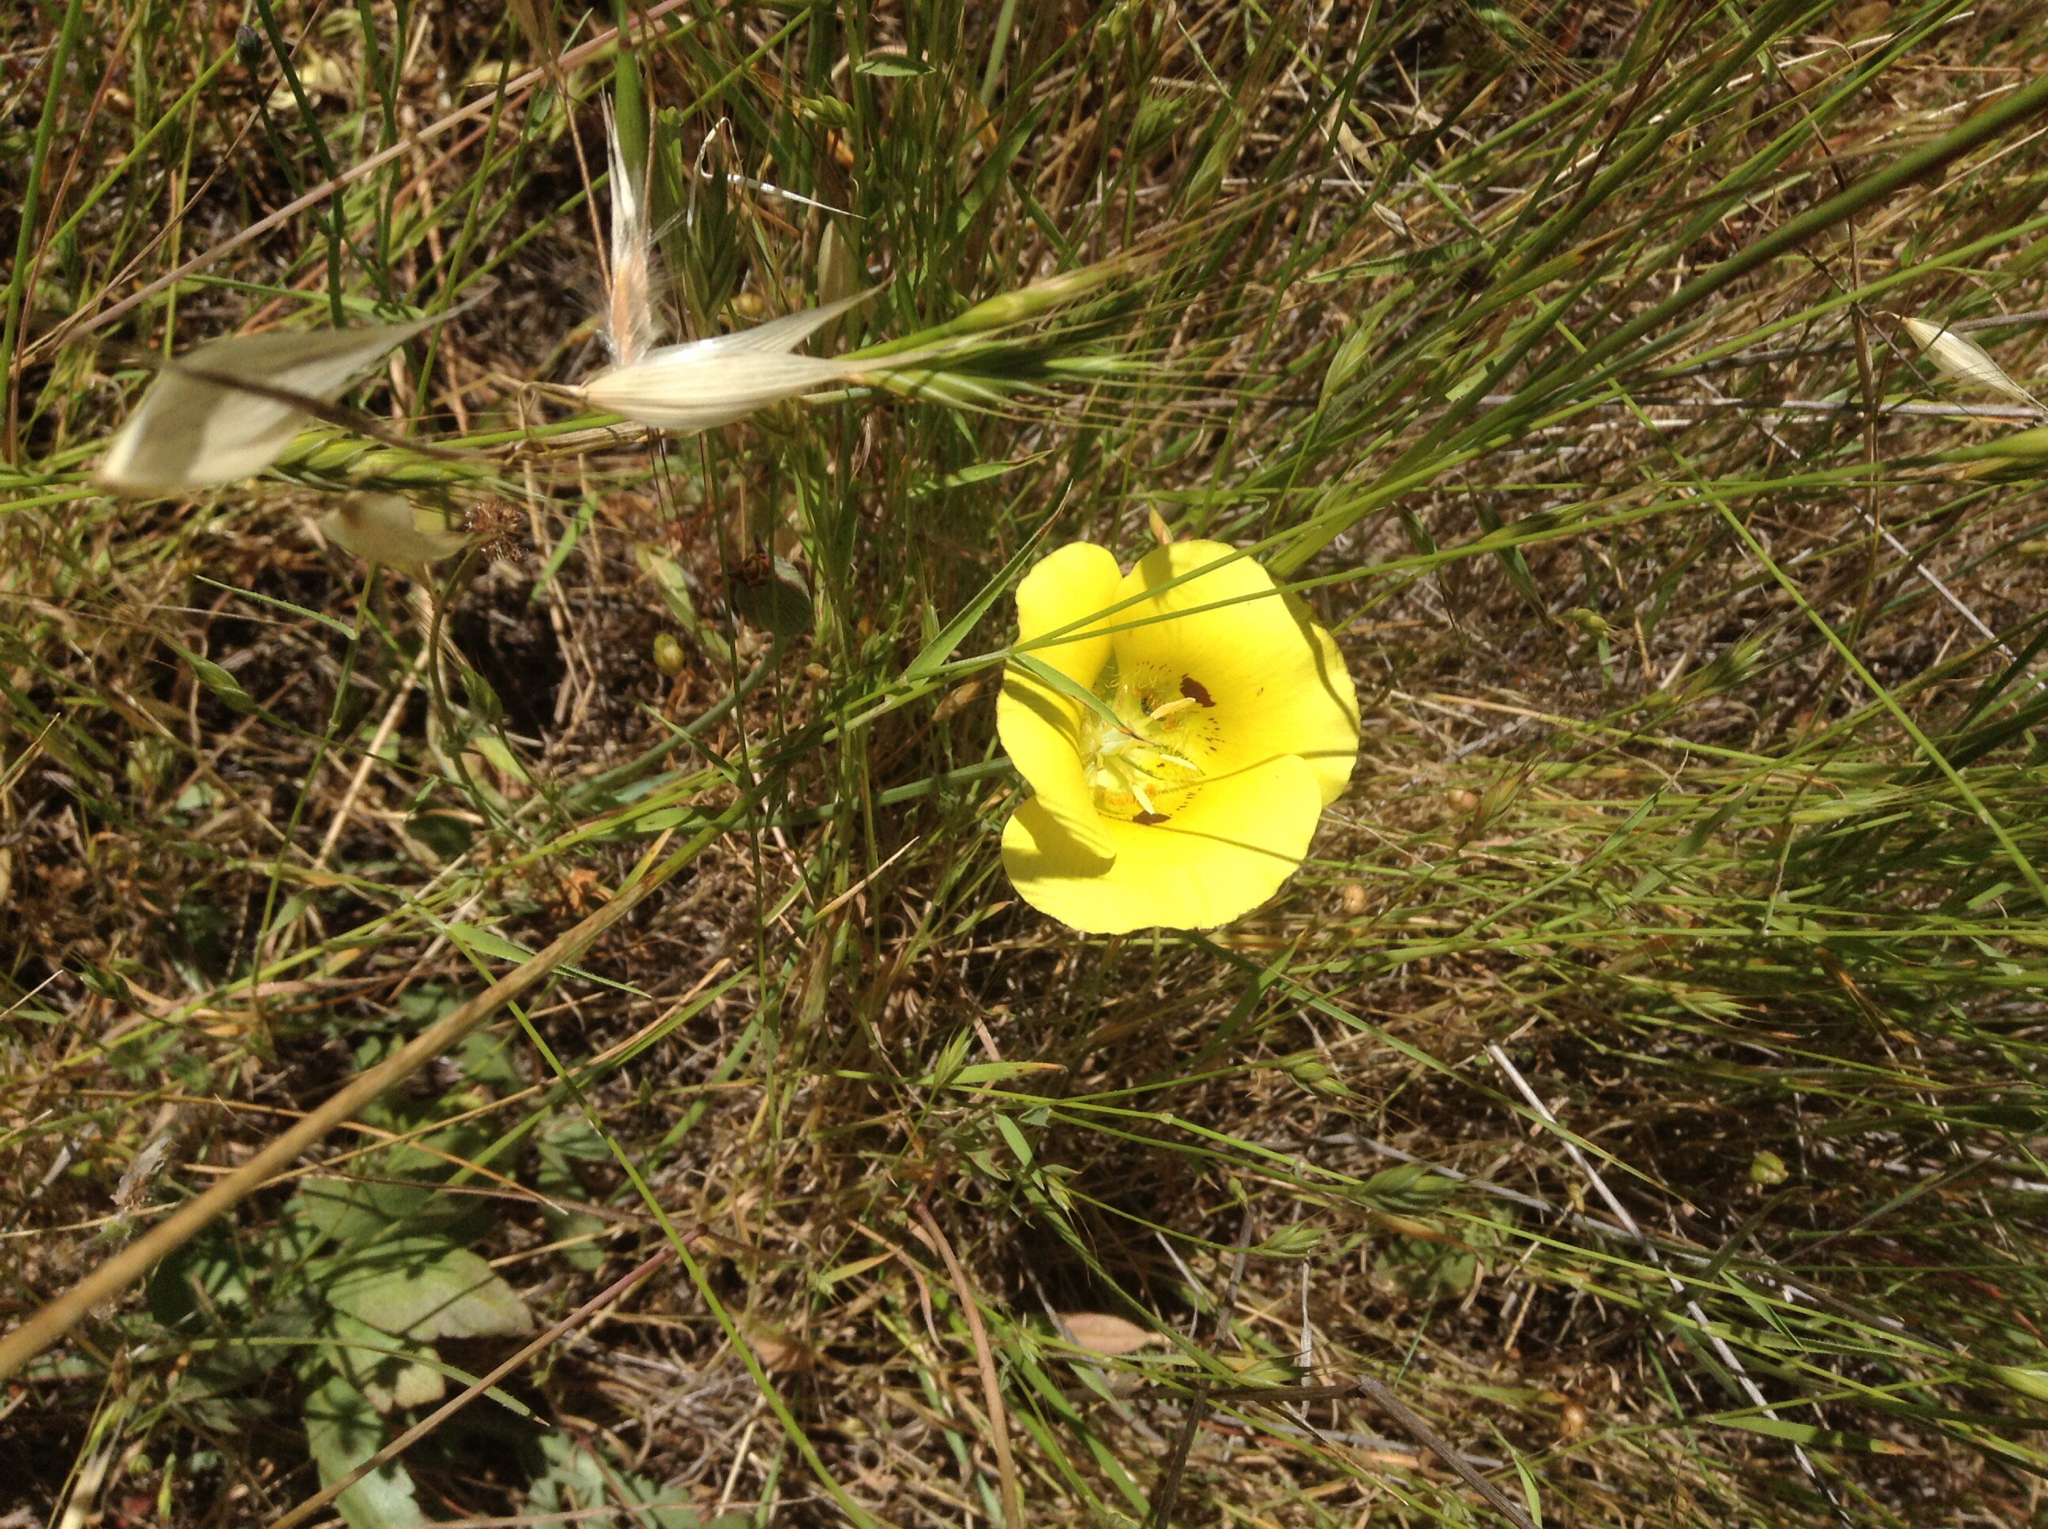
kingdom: Plantae
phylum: Tracheophyta
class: Liliopsida
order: Liliales
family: Liliaceae
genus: Calochortus
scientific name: Calochortus luteus
